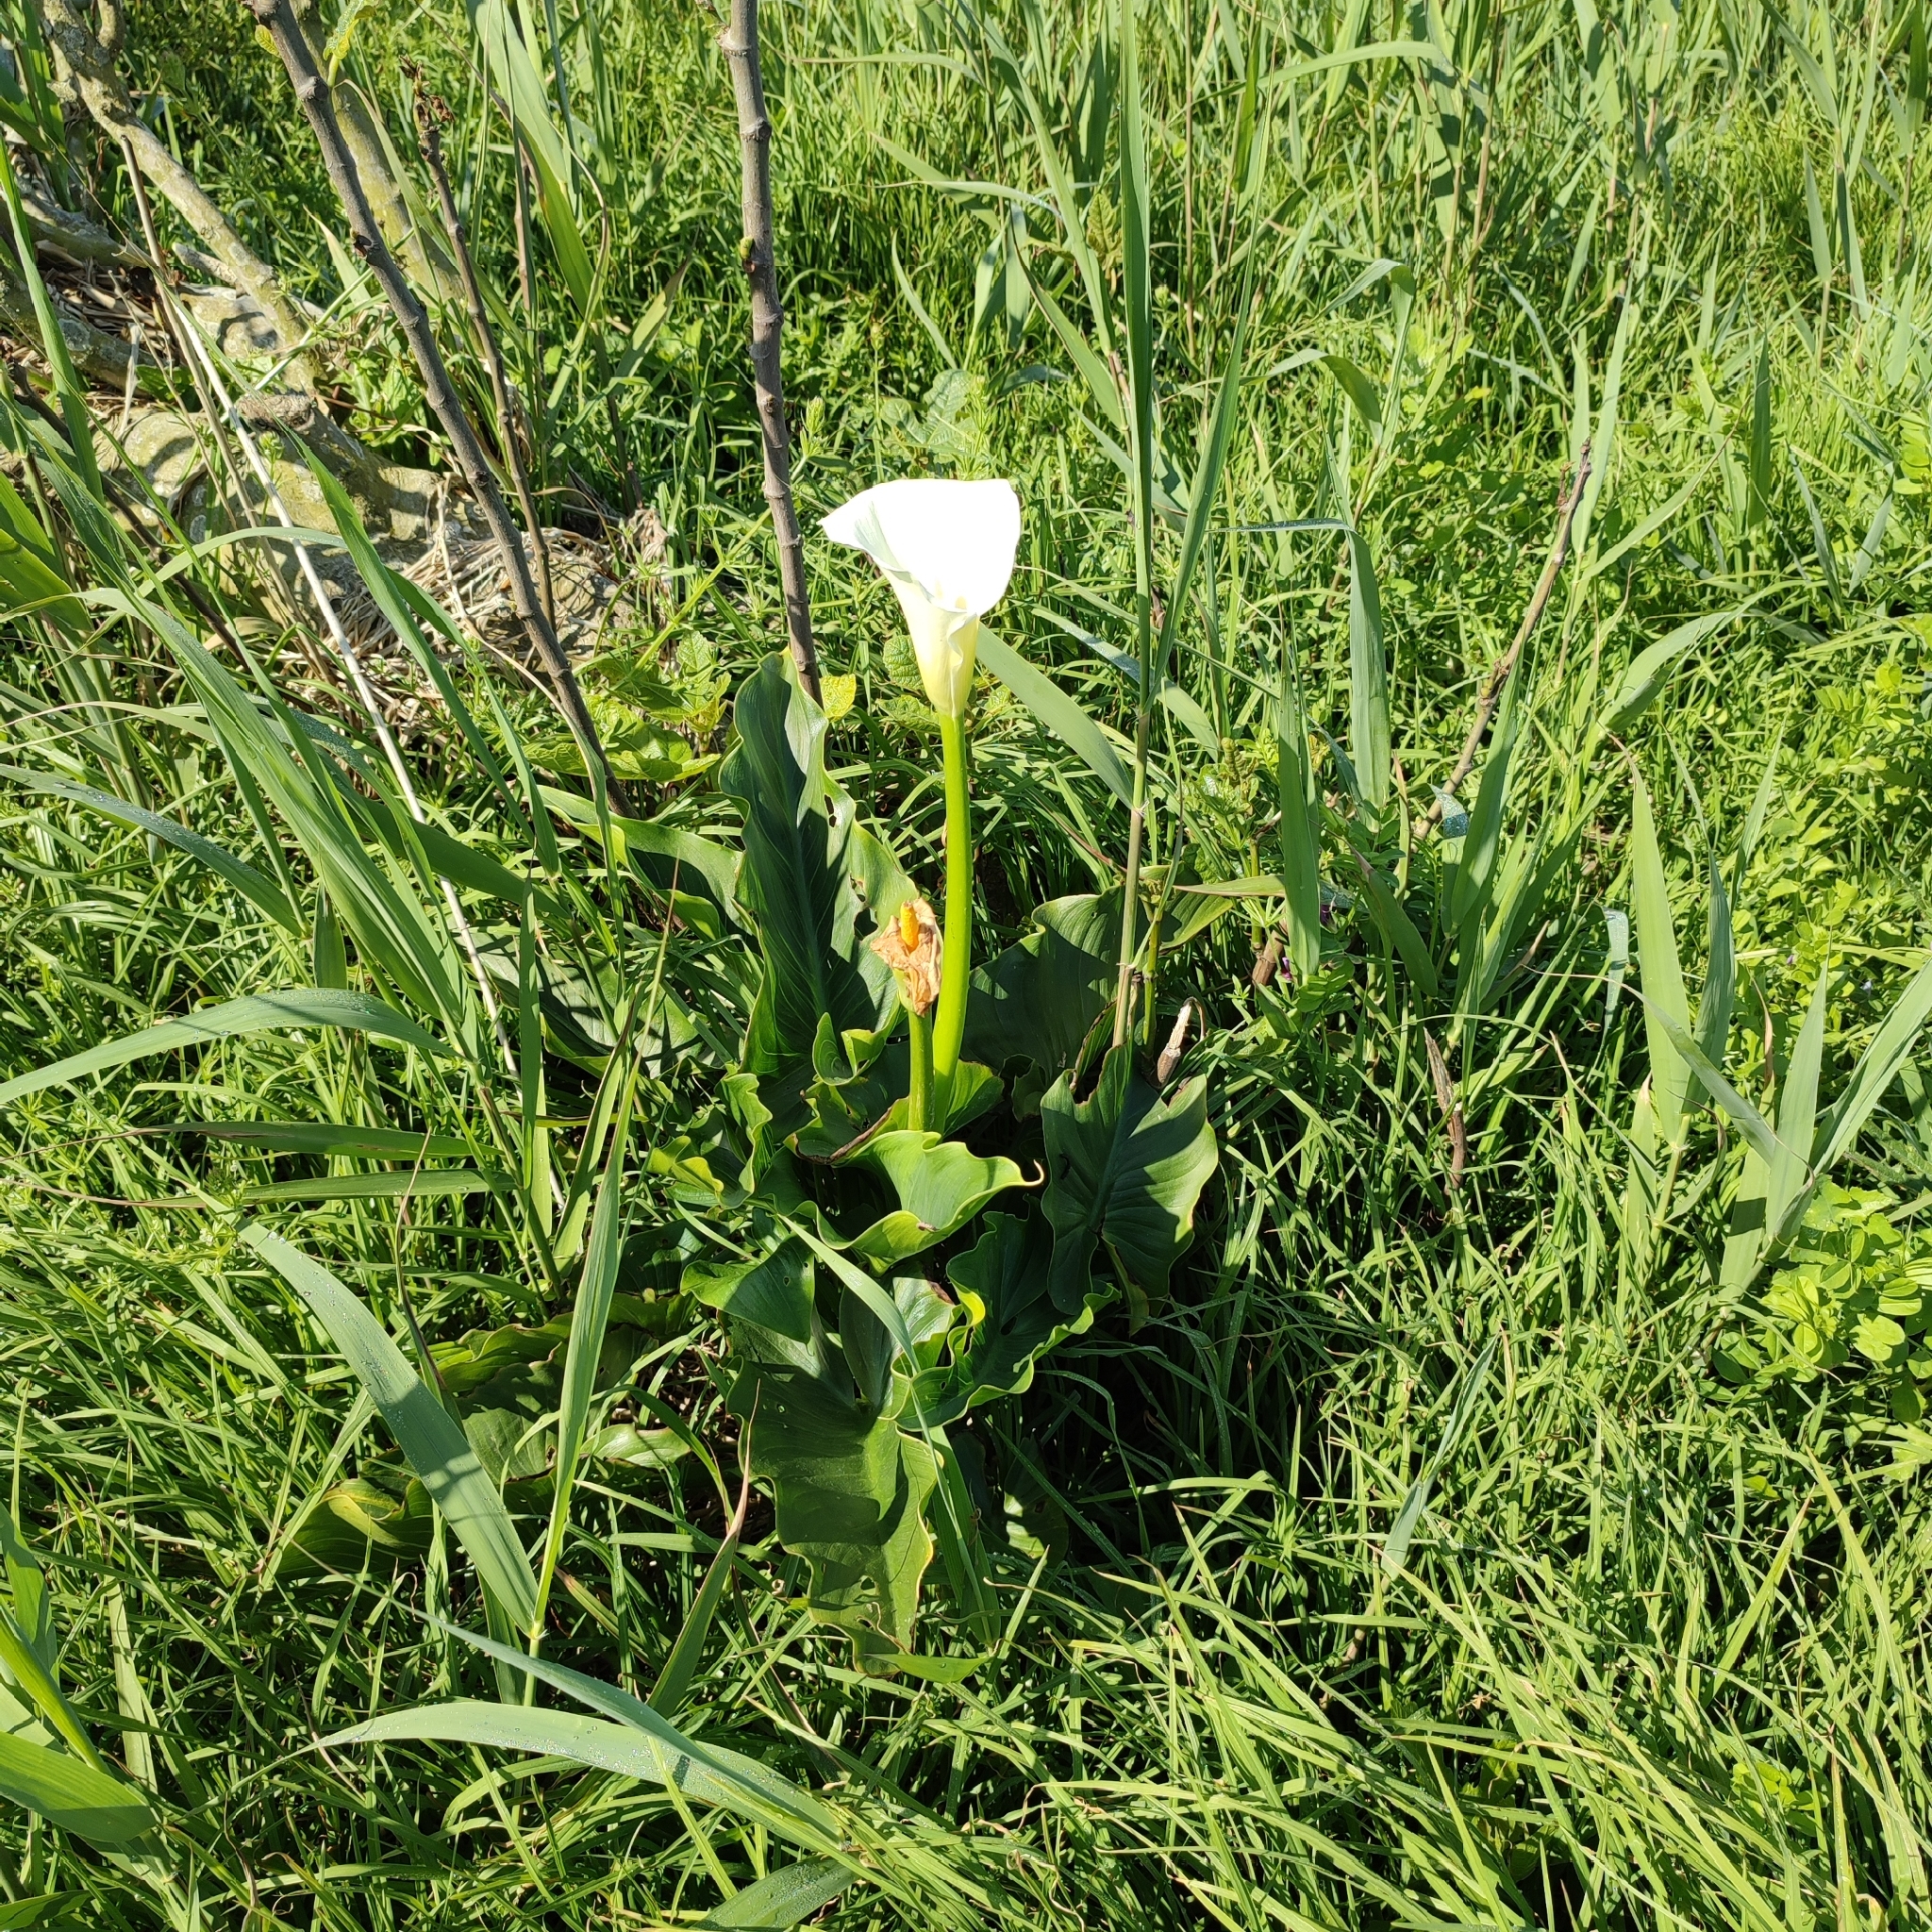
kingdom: Plantae
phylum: Tracheophyta
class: Liliopsida
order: Alismatales
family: Araceae
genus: Zantedeschia
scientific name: Zantedeschia aethiopica
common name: Altar-lily
